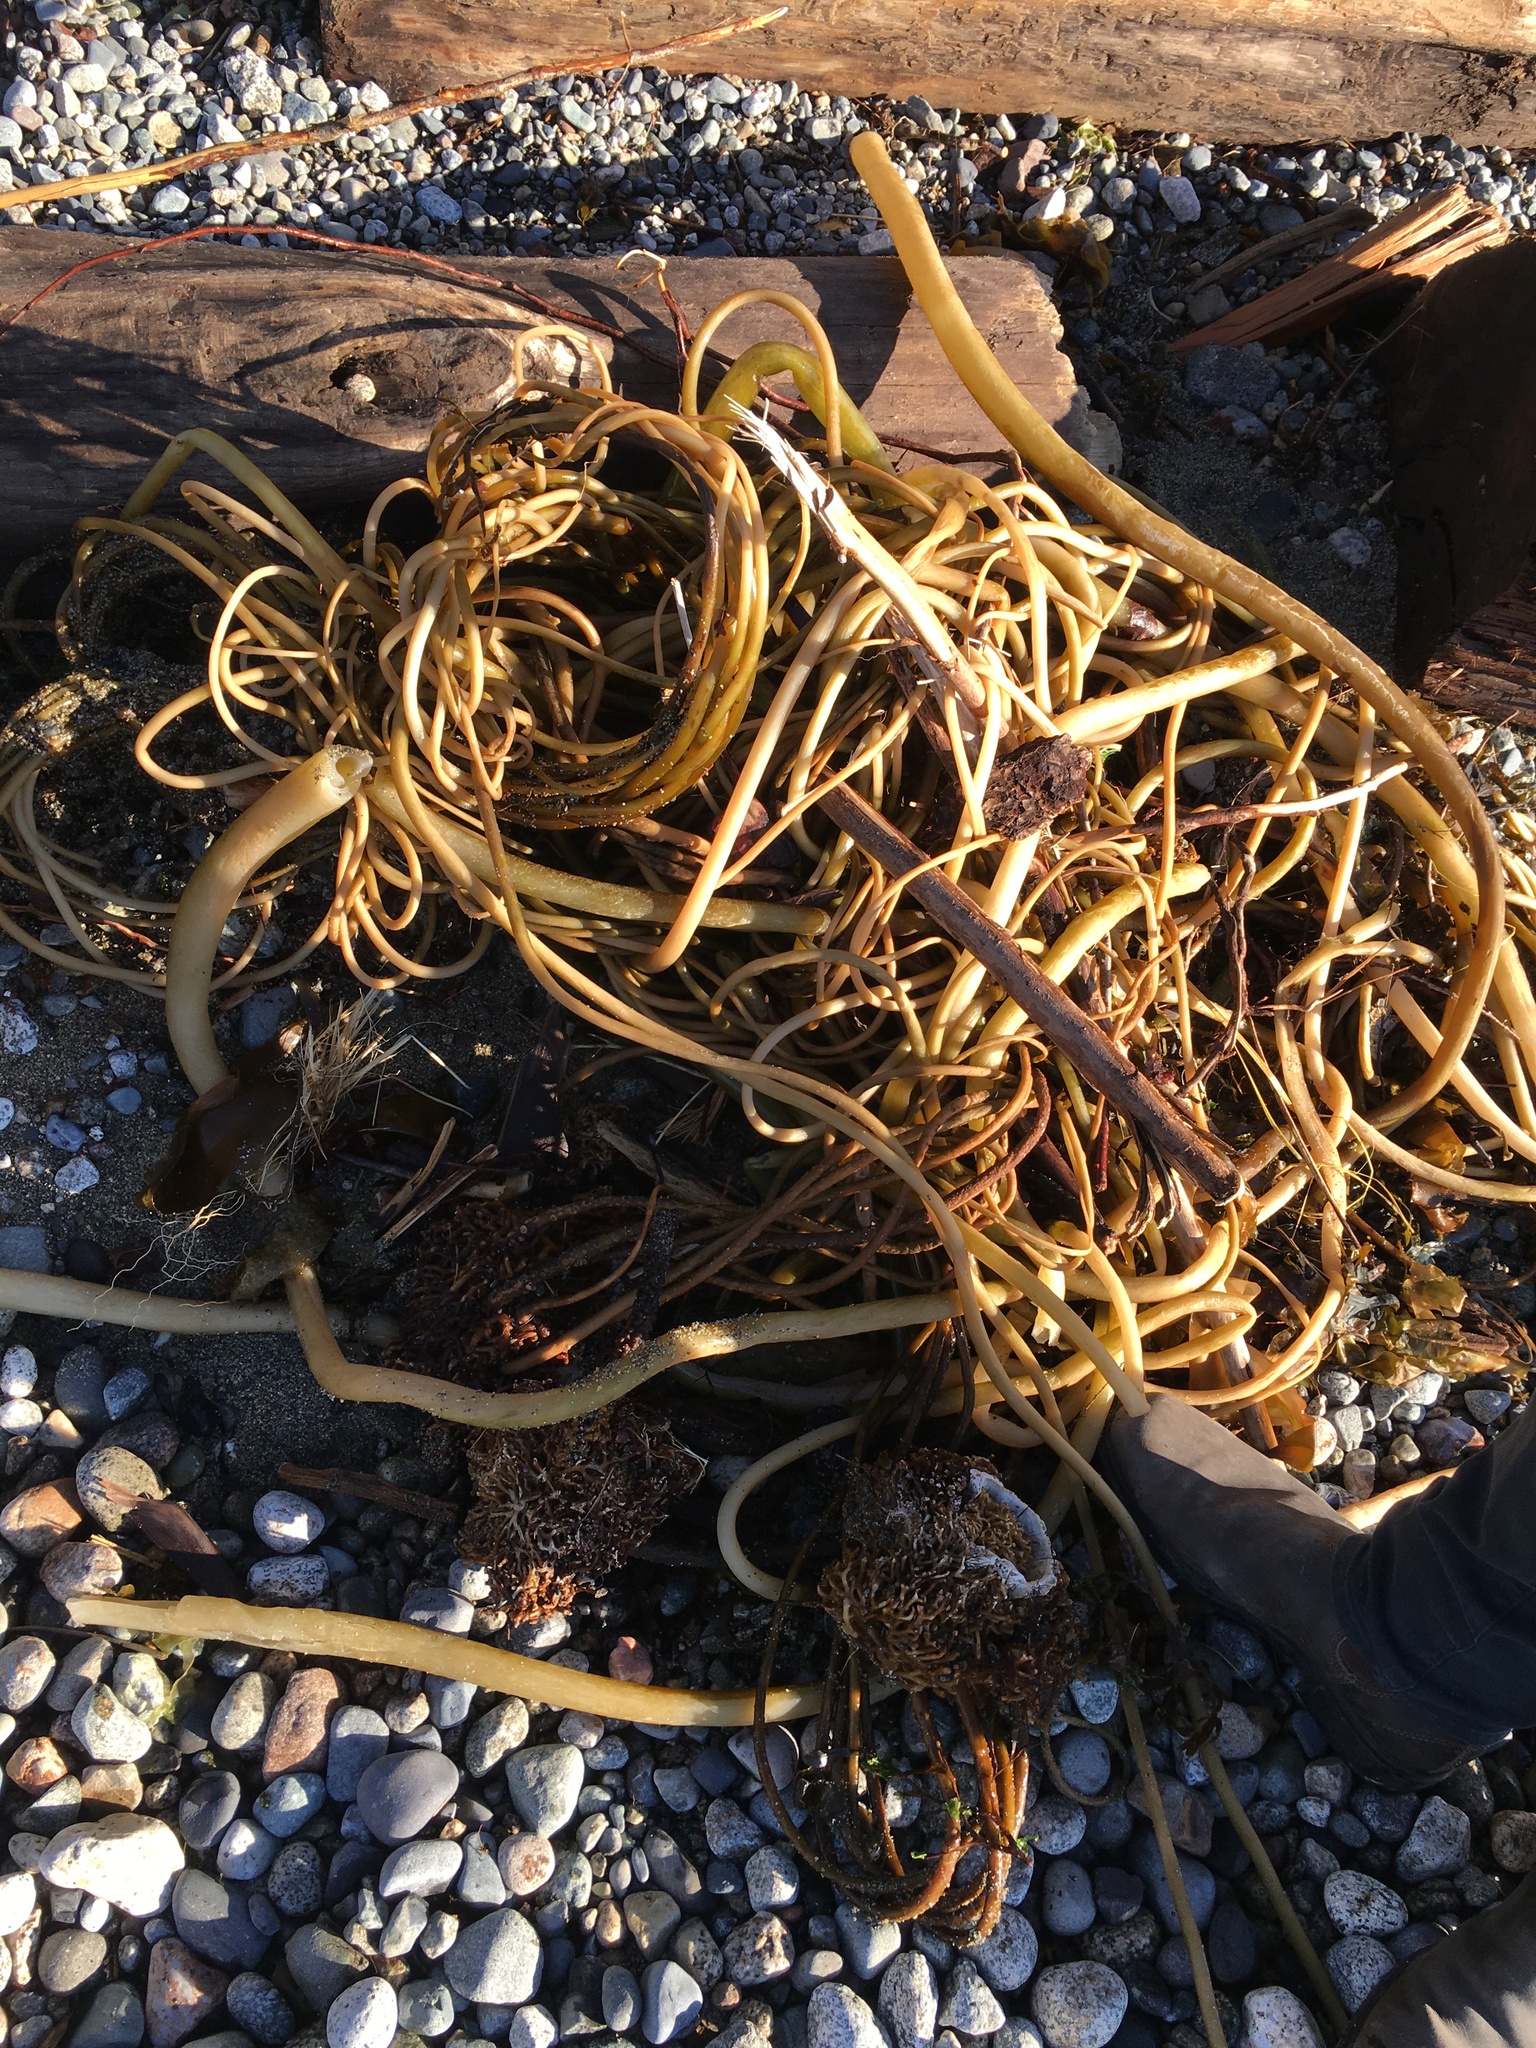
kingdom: Chromista
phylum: Ochrophyta
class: Phaeophyceae
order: Laminariales
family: Laminariaceae
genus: Nereocystis
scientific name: Nereocystis luetkeana
